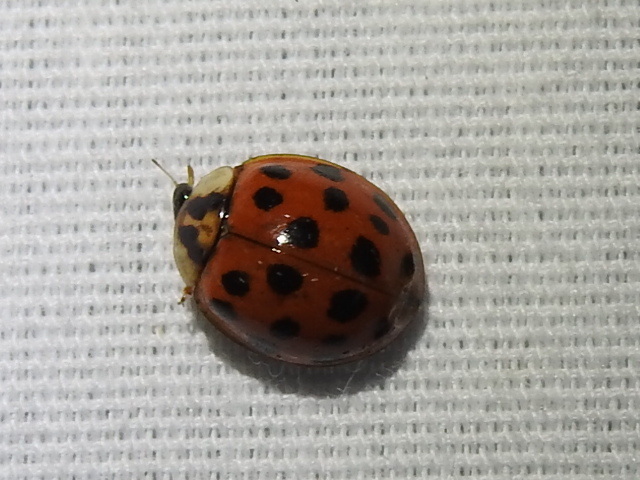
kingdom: Animalia
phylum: Arthropoda
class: Insecta
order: Coleoptera
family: Coccinellidae
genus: Harmonia
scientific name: Harmonia axyridis
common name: Harlequin ladybird
